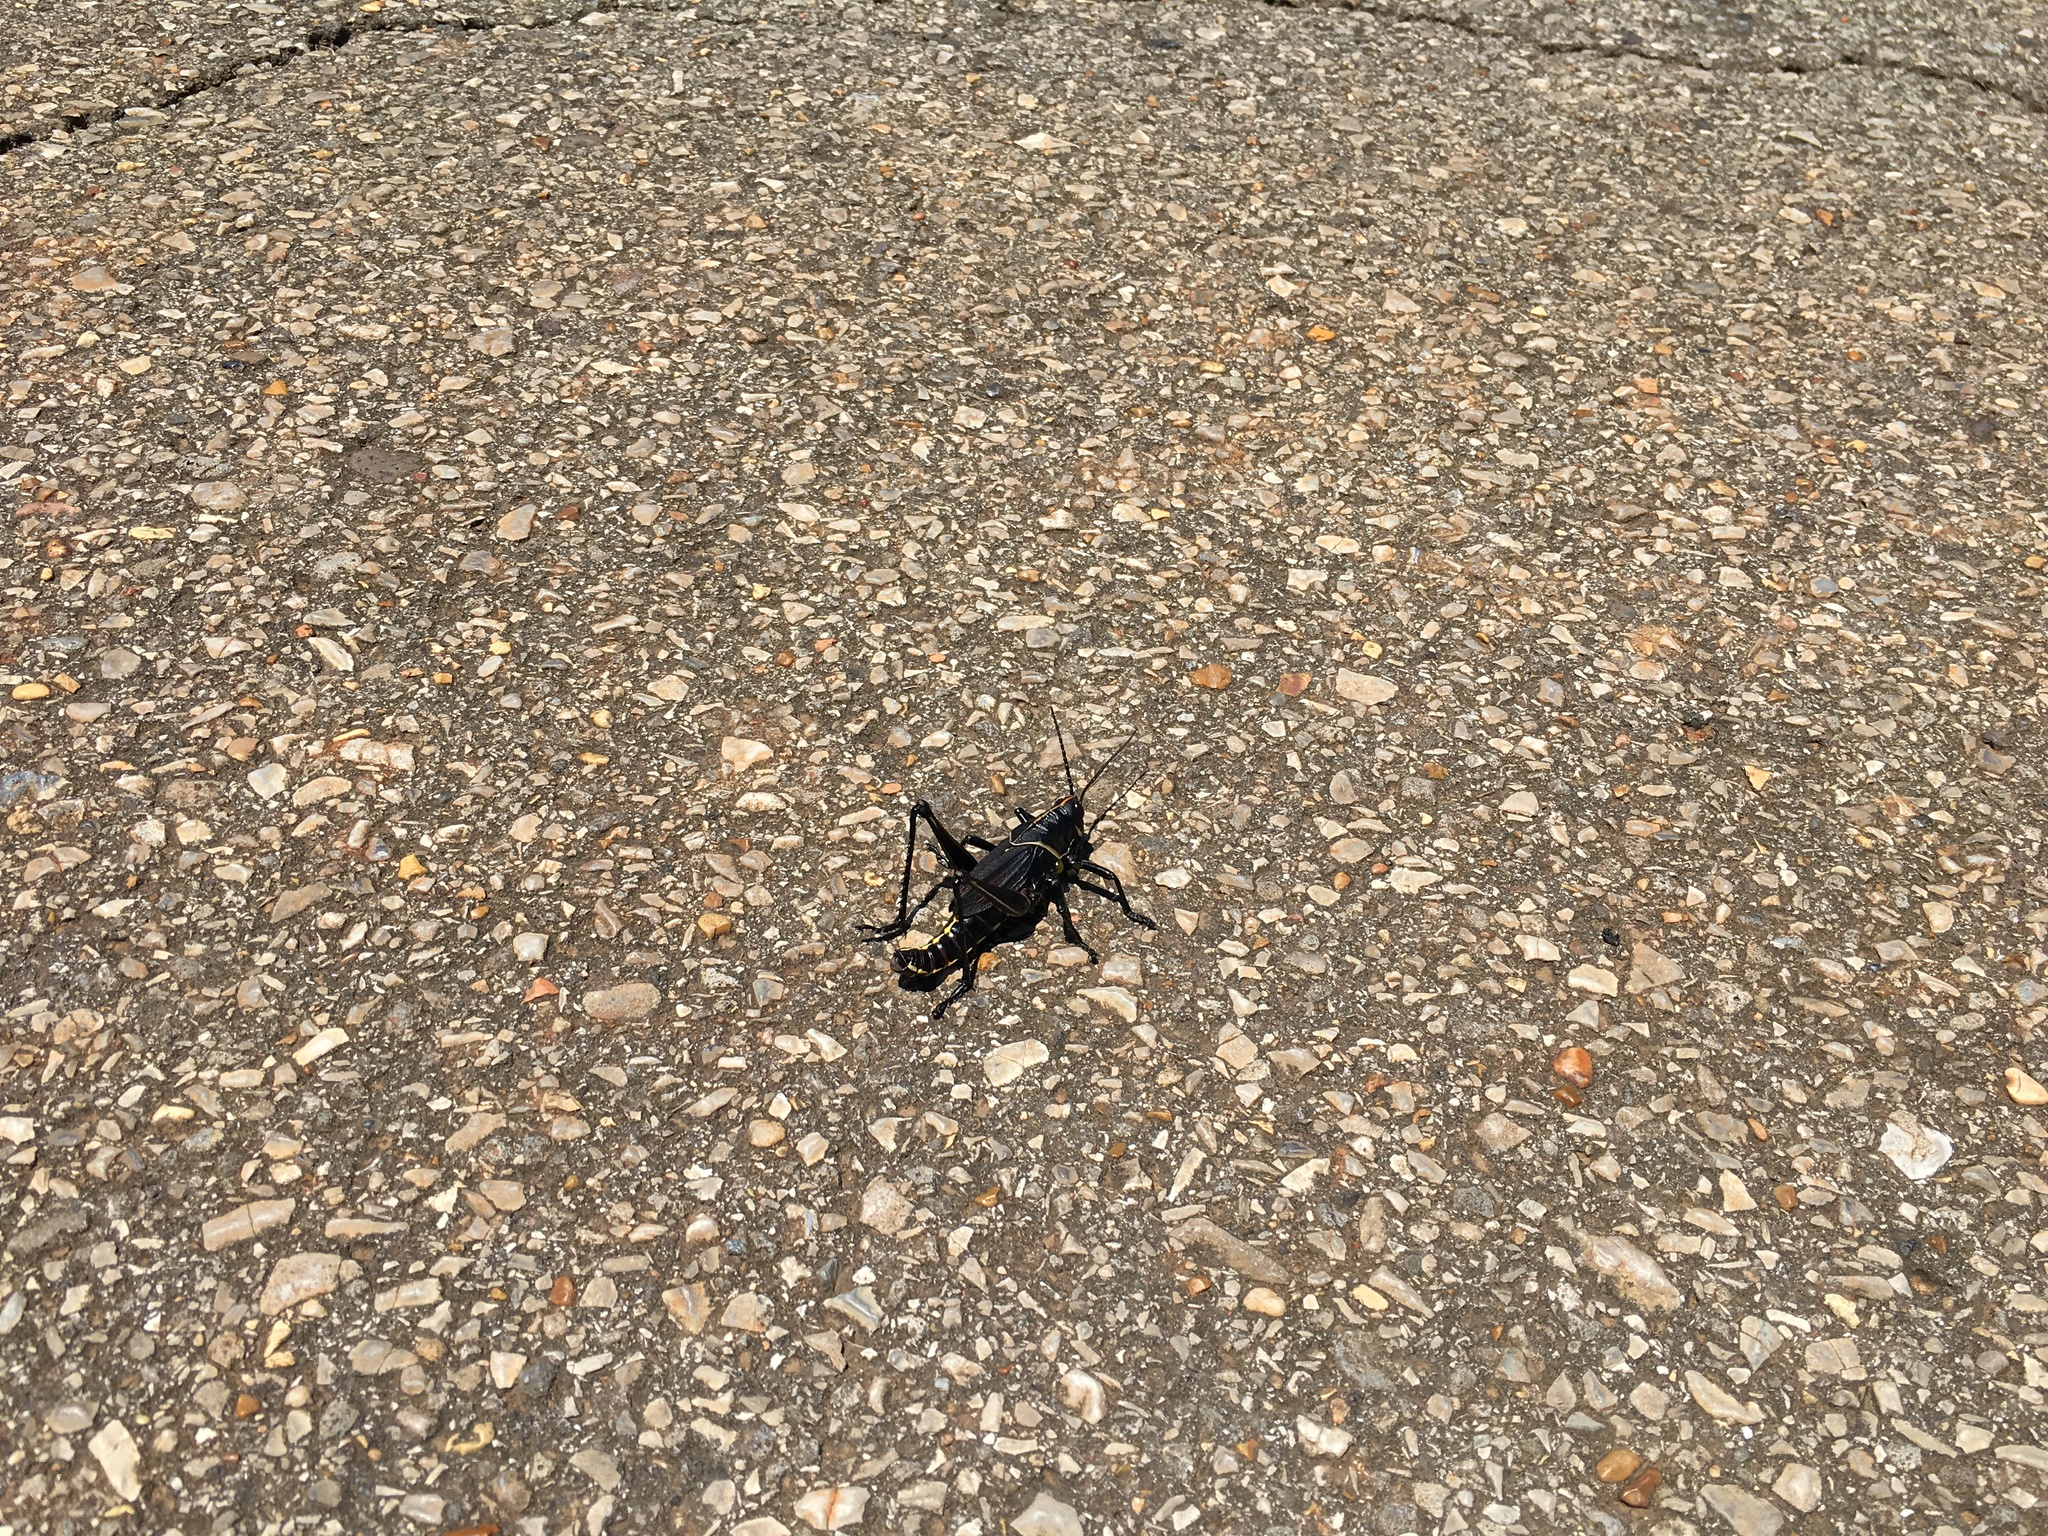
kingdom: Animalia
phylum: Arthropoda
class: Insecta
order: Orthoptera
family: Romaleidae
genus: Romalea
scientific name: Romalea microptera
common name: Eastern lubber grasshopper
